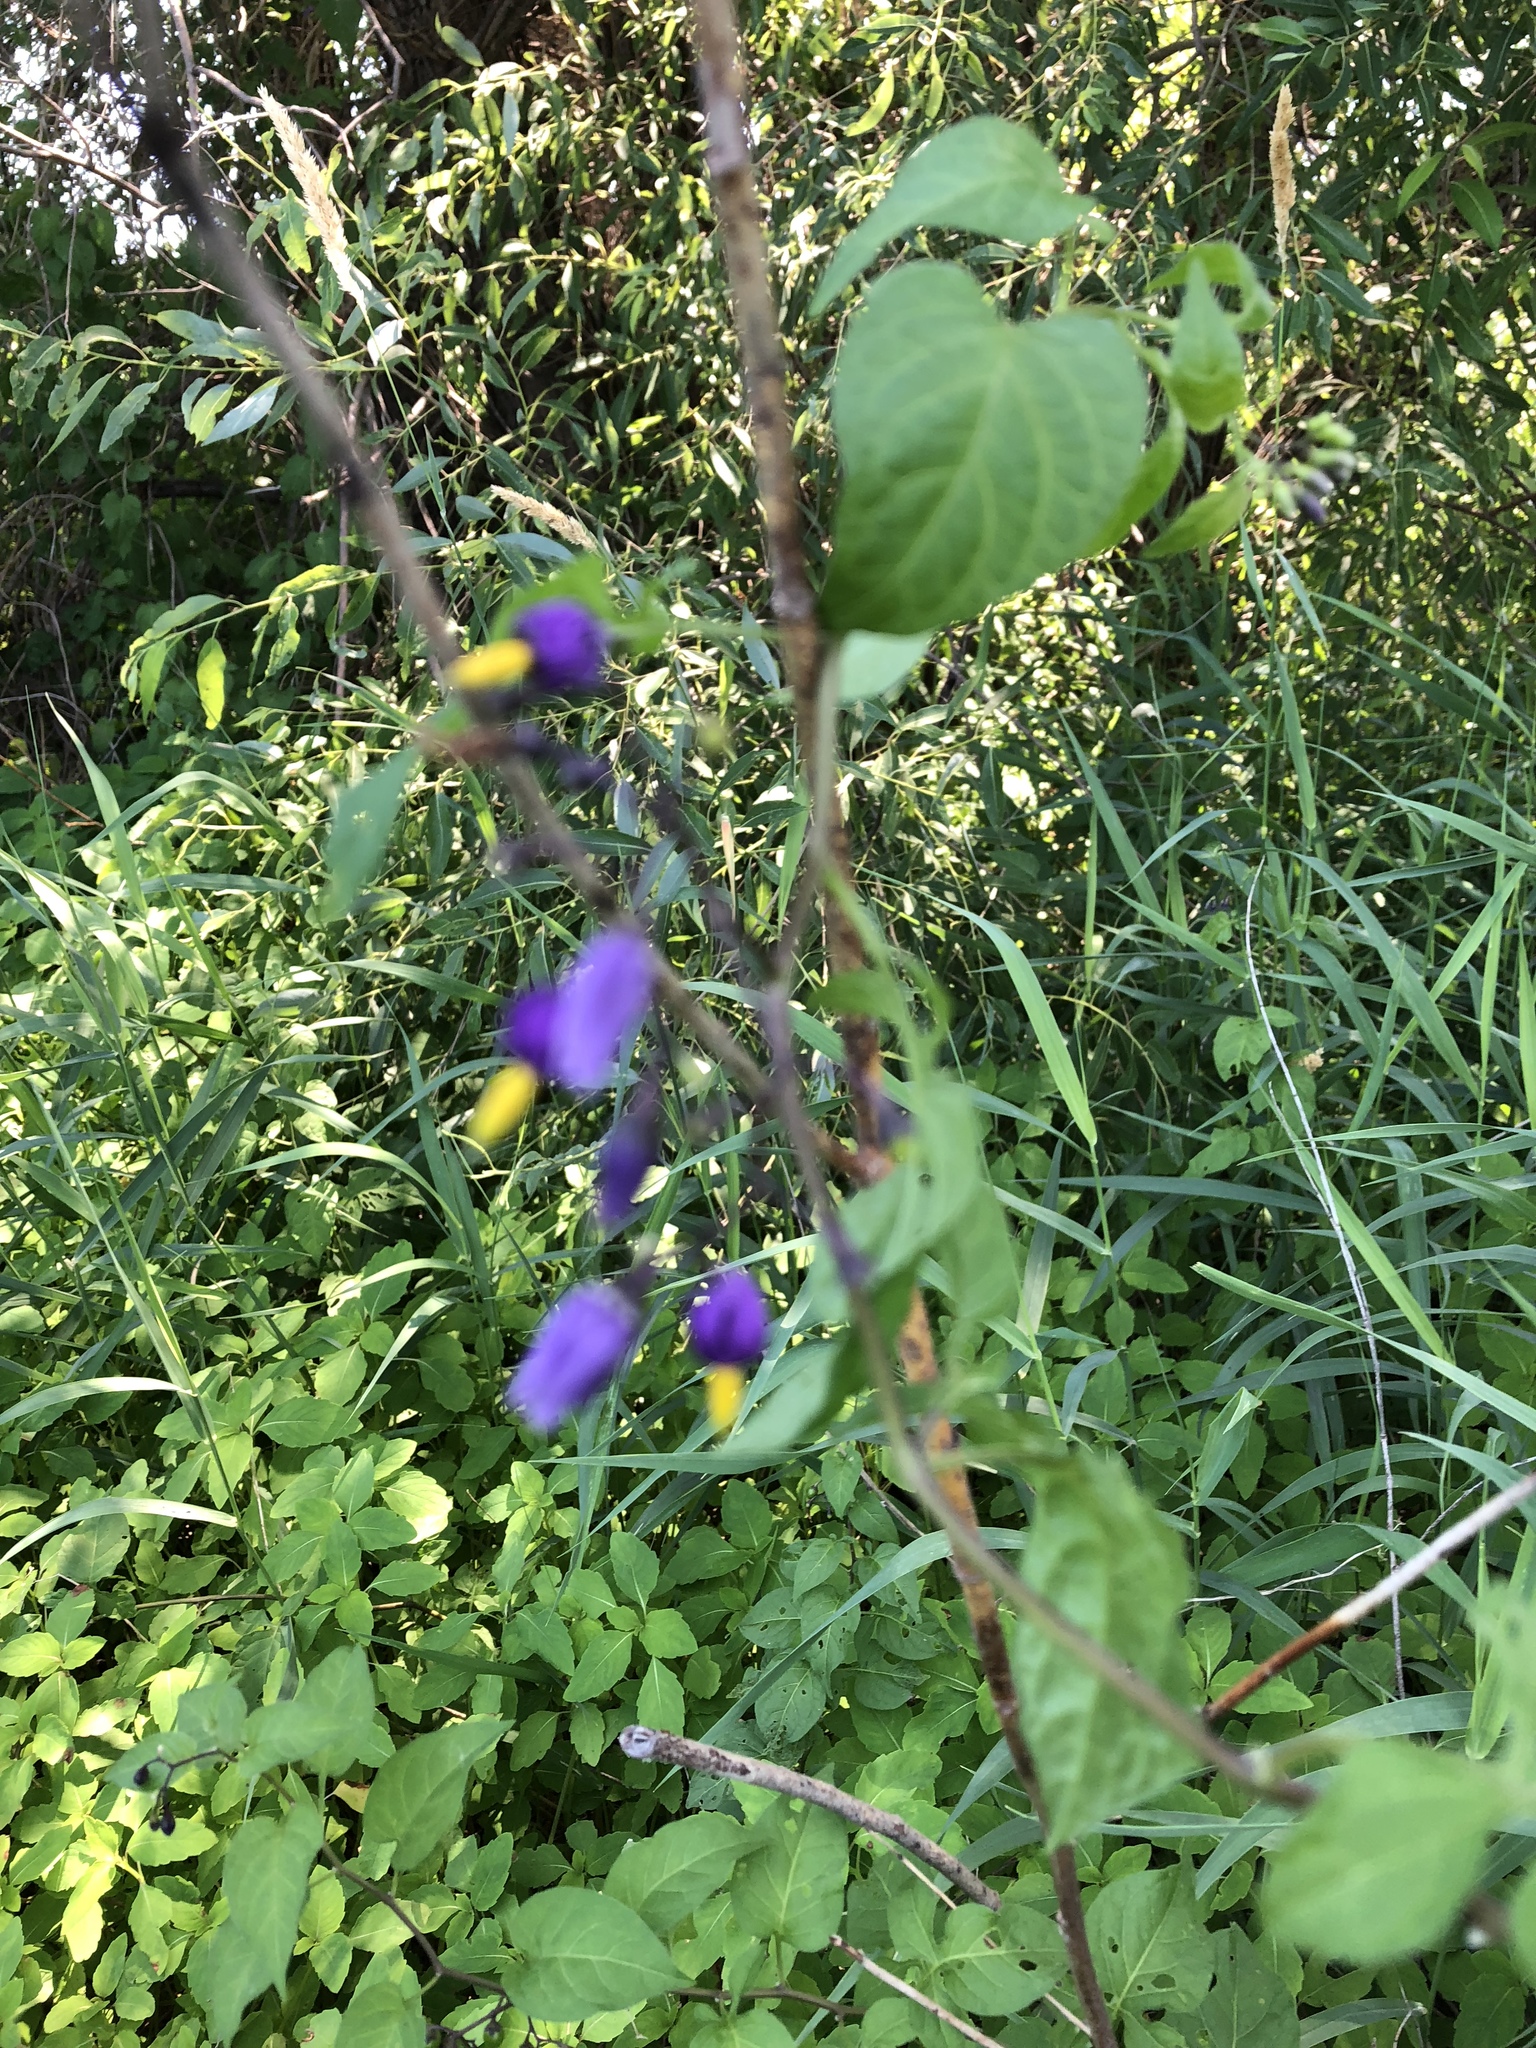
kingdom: Plantae
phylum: Tracheophyta
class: Magnoliopsida
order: Solanales
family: Solanaceae
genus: Solanum
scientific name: Solanum dulcamara
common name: Climbing nightshade
